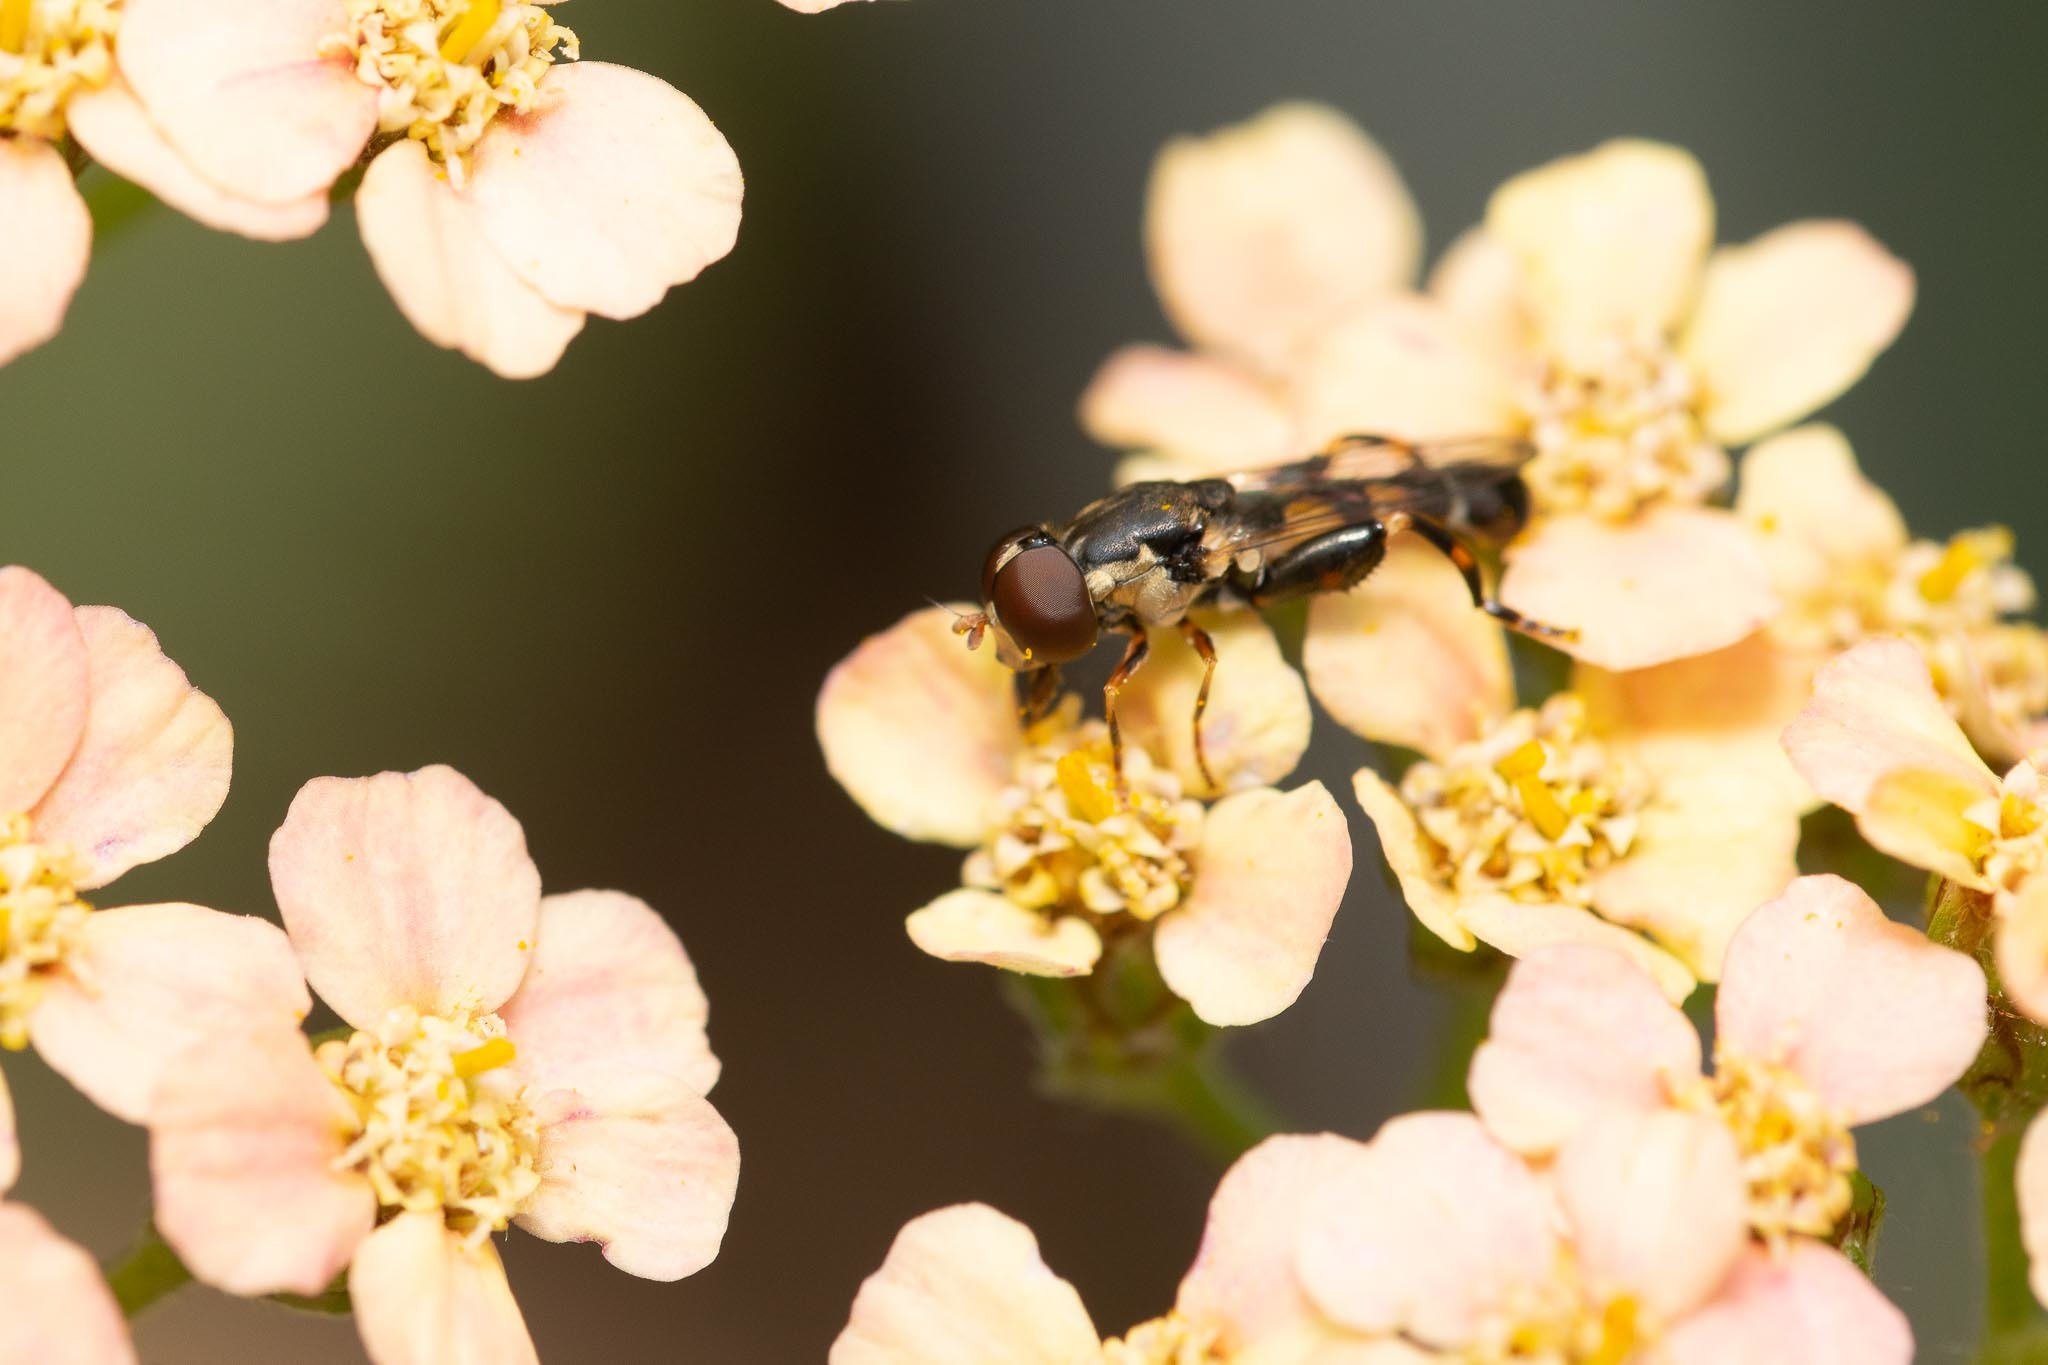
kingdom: Animalia
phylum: Arthropoda
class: Insecta
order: Diptera
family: Syrphidae
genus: Syritta
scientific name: Syritta pipiens
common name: Hover fly
